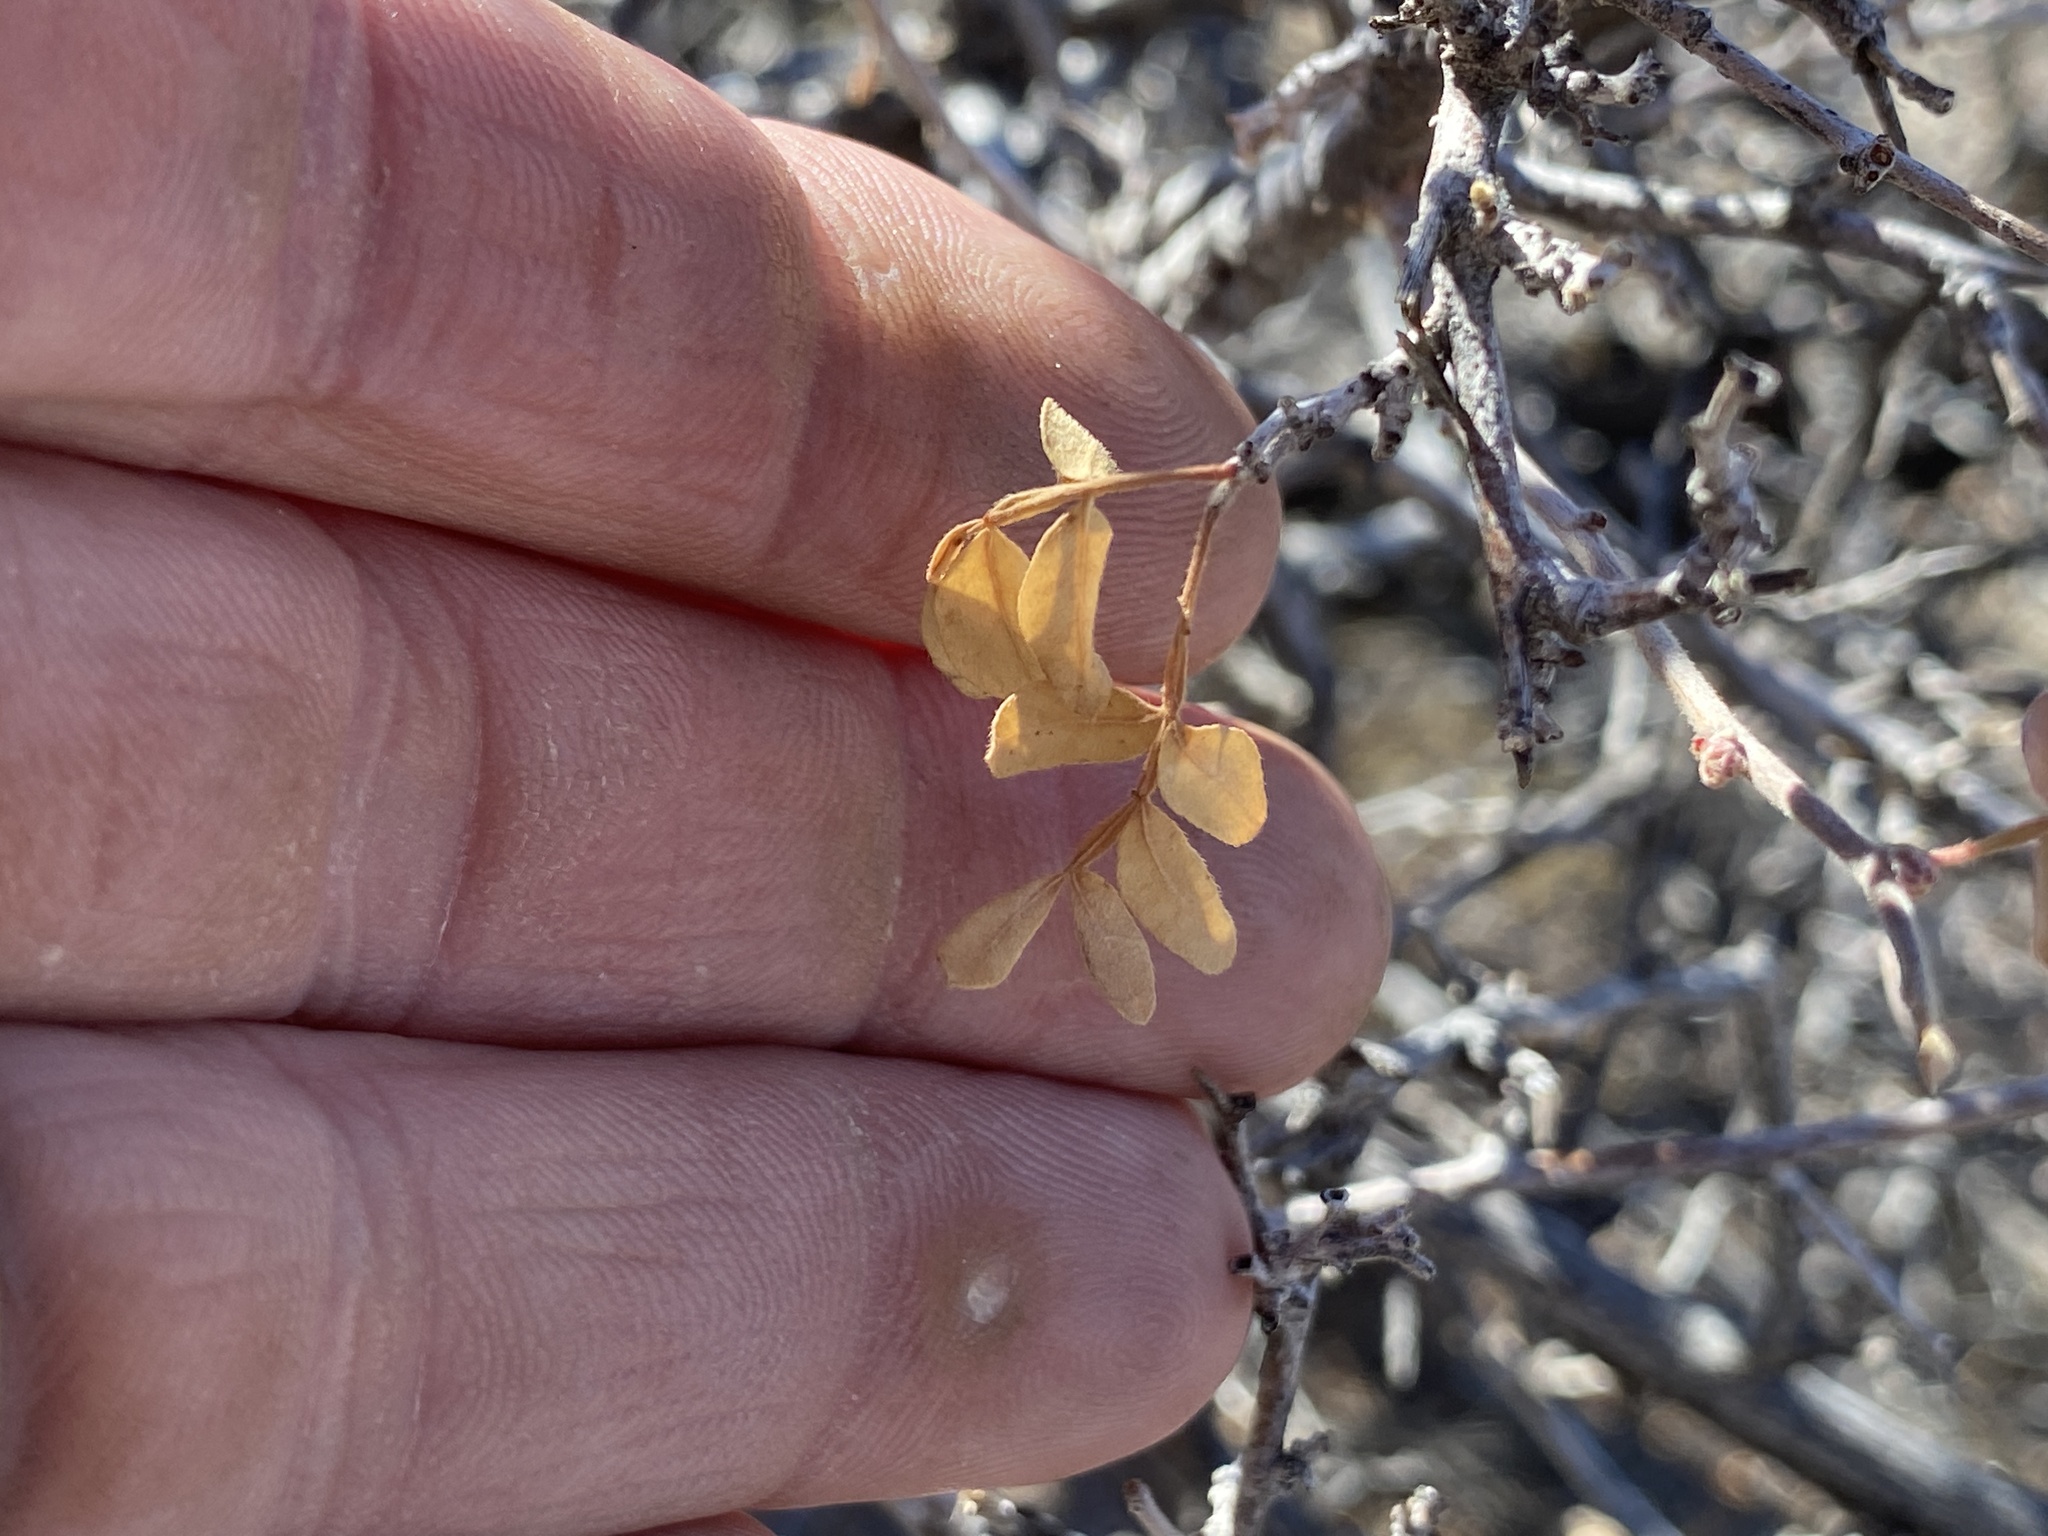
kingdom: Plantae
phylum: Tracheophyta
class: Magnoliopsida
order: Sapindales
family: Anacardiaceae
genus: Rhus
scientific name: Rhus microphylla
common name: Desert sumac
